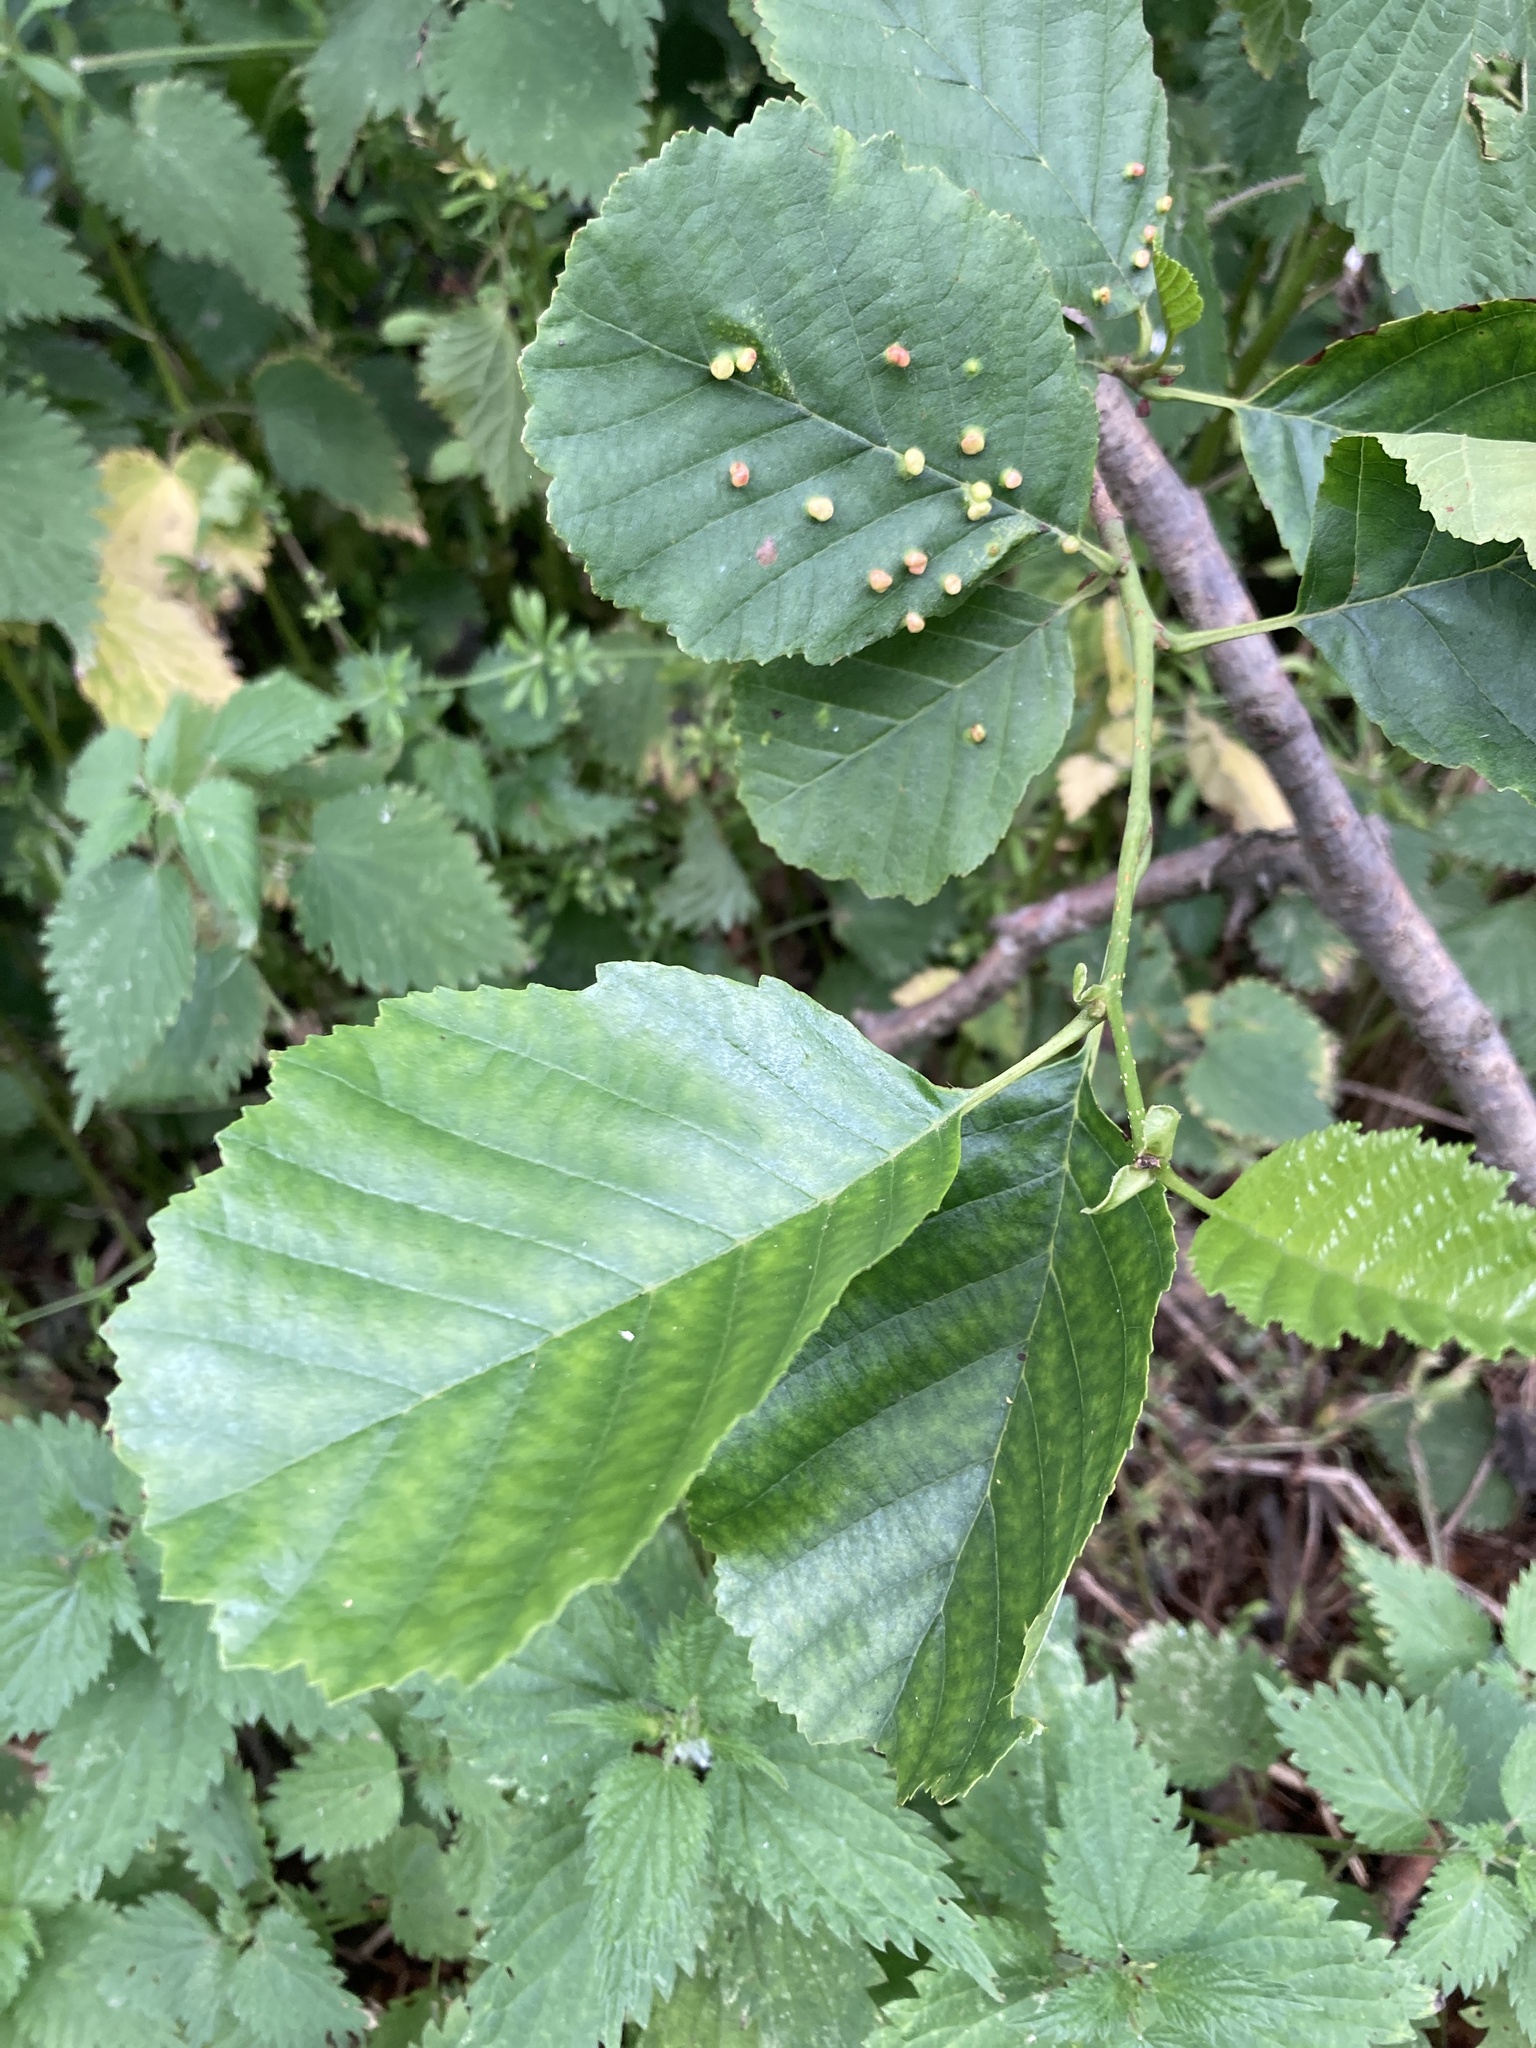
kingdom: Plantae
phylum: Tracheophyta
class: Magnoliopsida
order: Fagales
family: Betulaceae
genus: Alnus
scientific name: Alnus glutinosa
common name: Black alder
